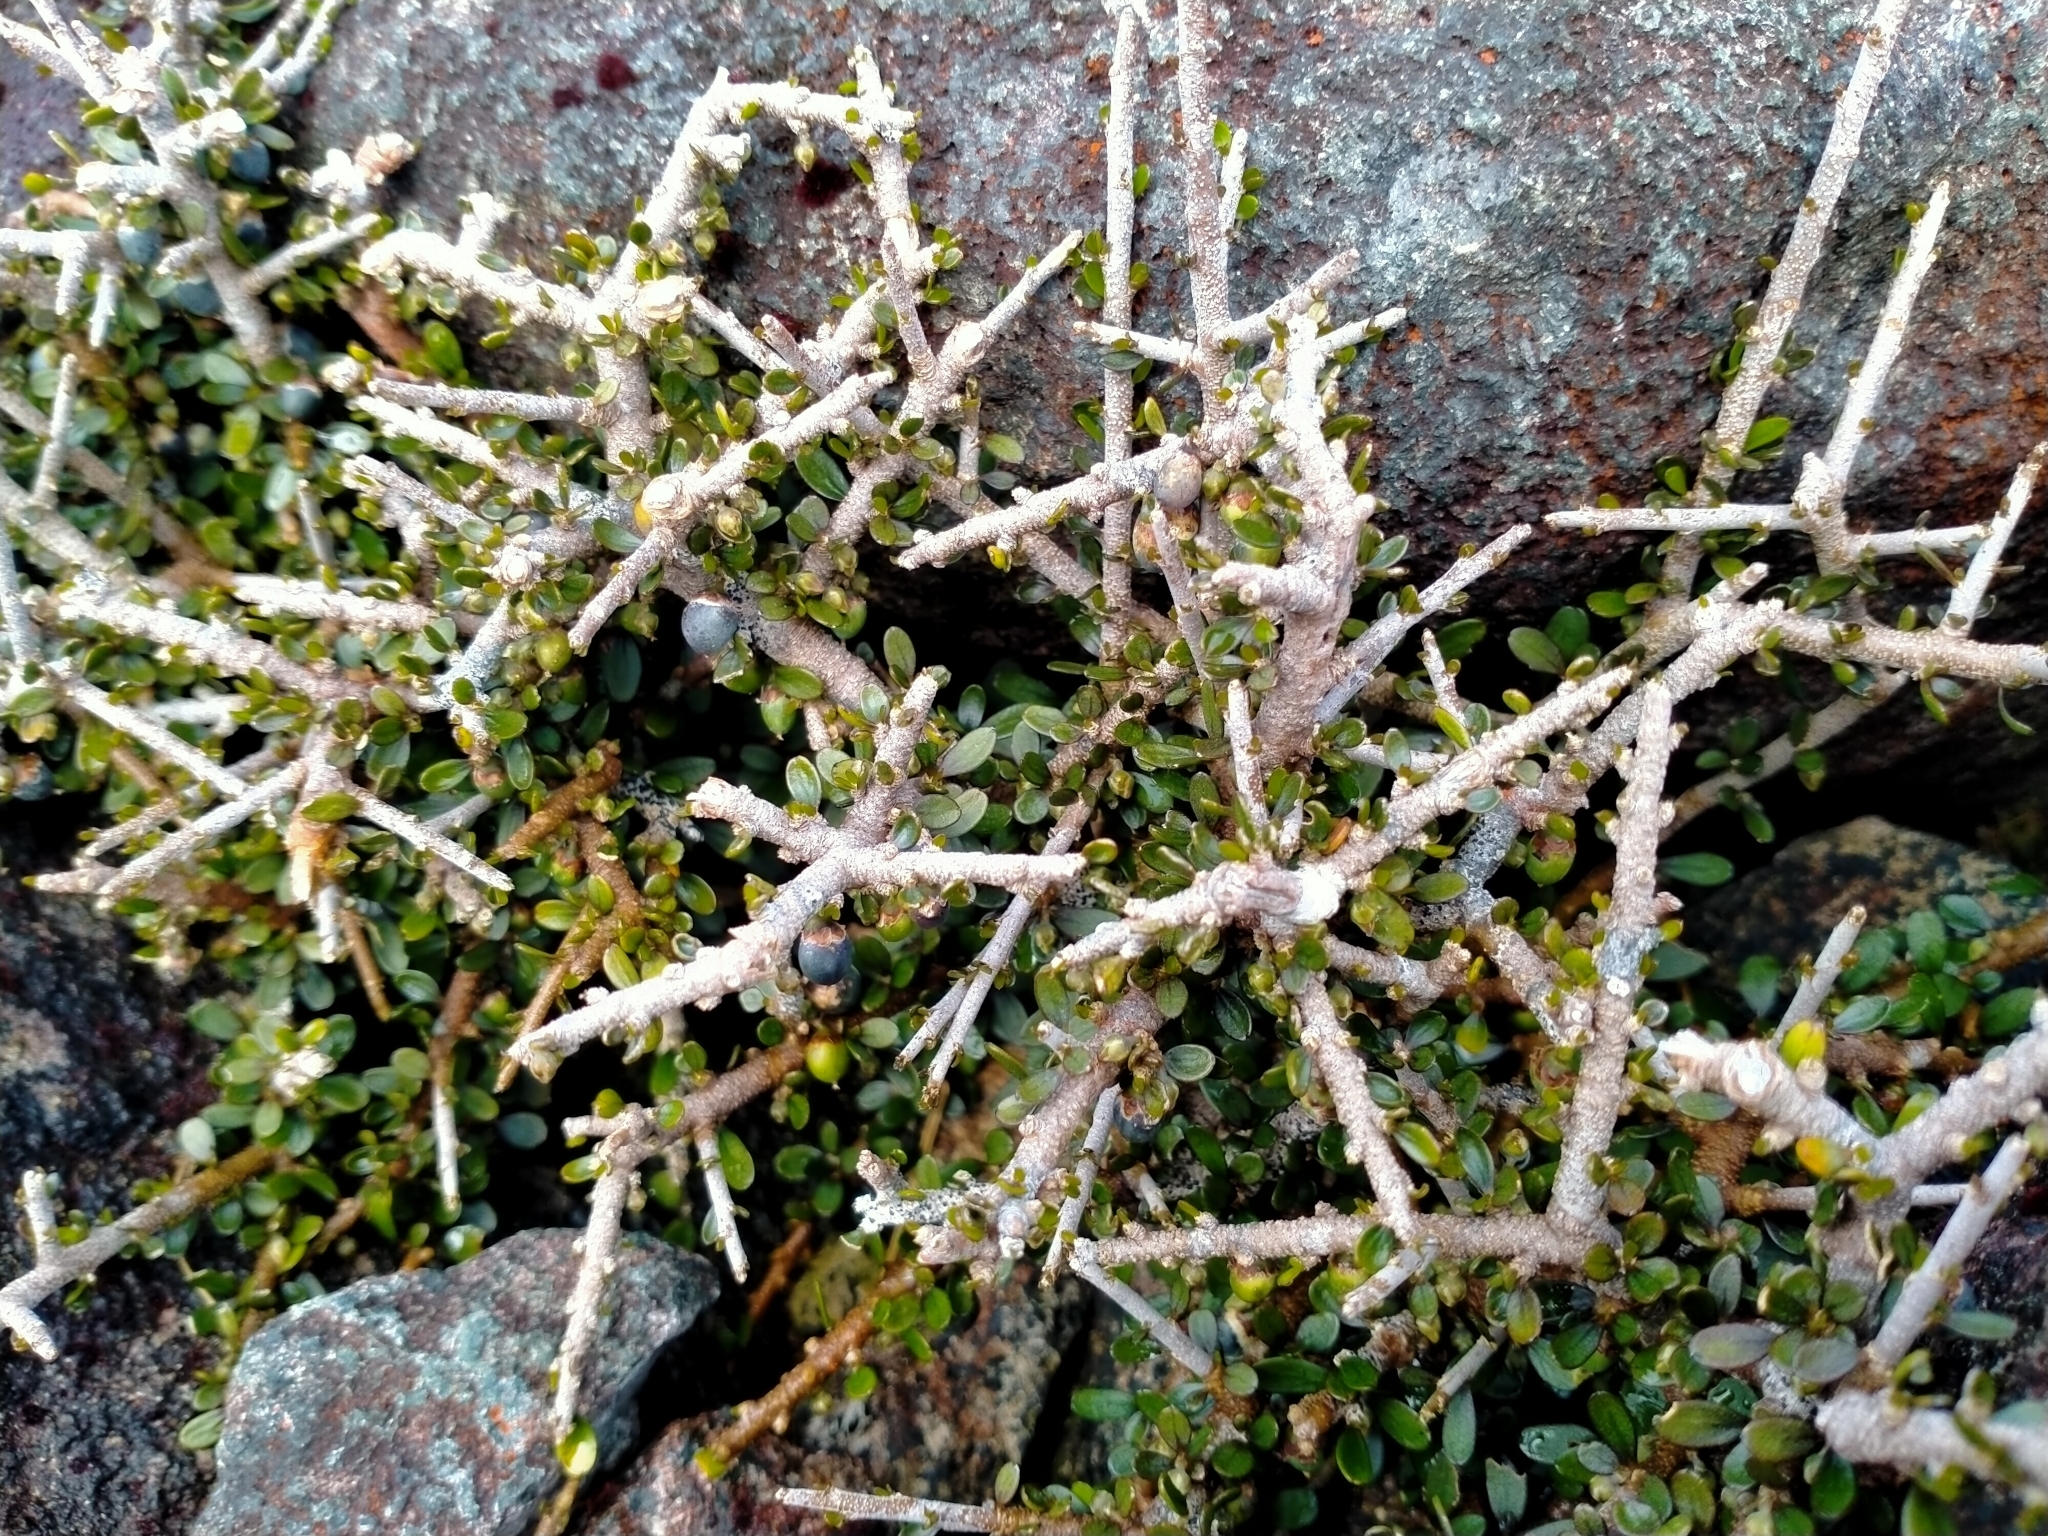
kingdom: Plantae
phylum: Tracheophyta
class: Magnoliopsida
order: Malpighiales
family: Violaceae
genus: Melicytus
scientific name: Melicytus alpinus
